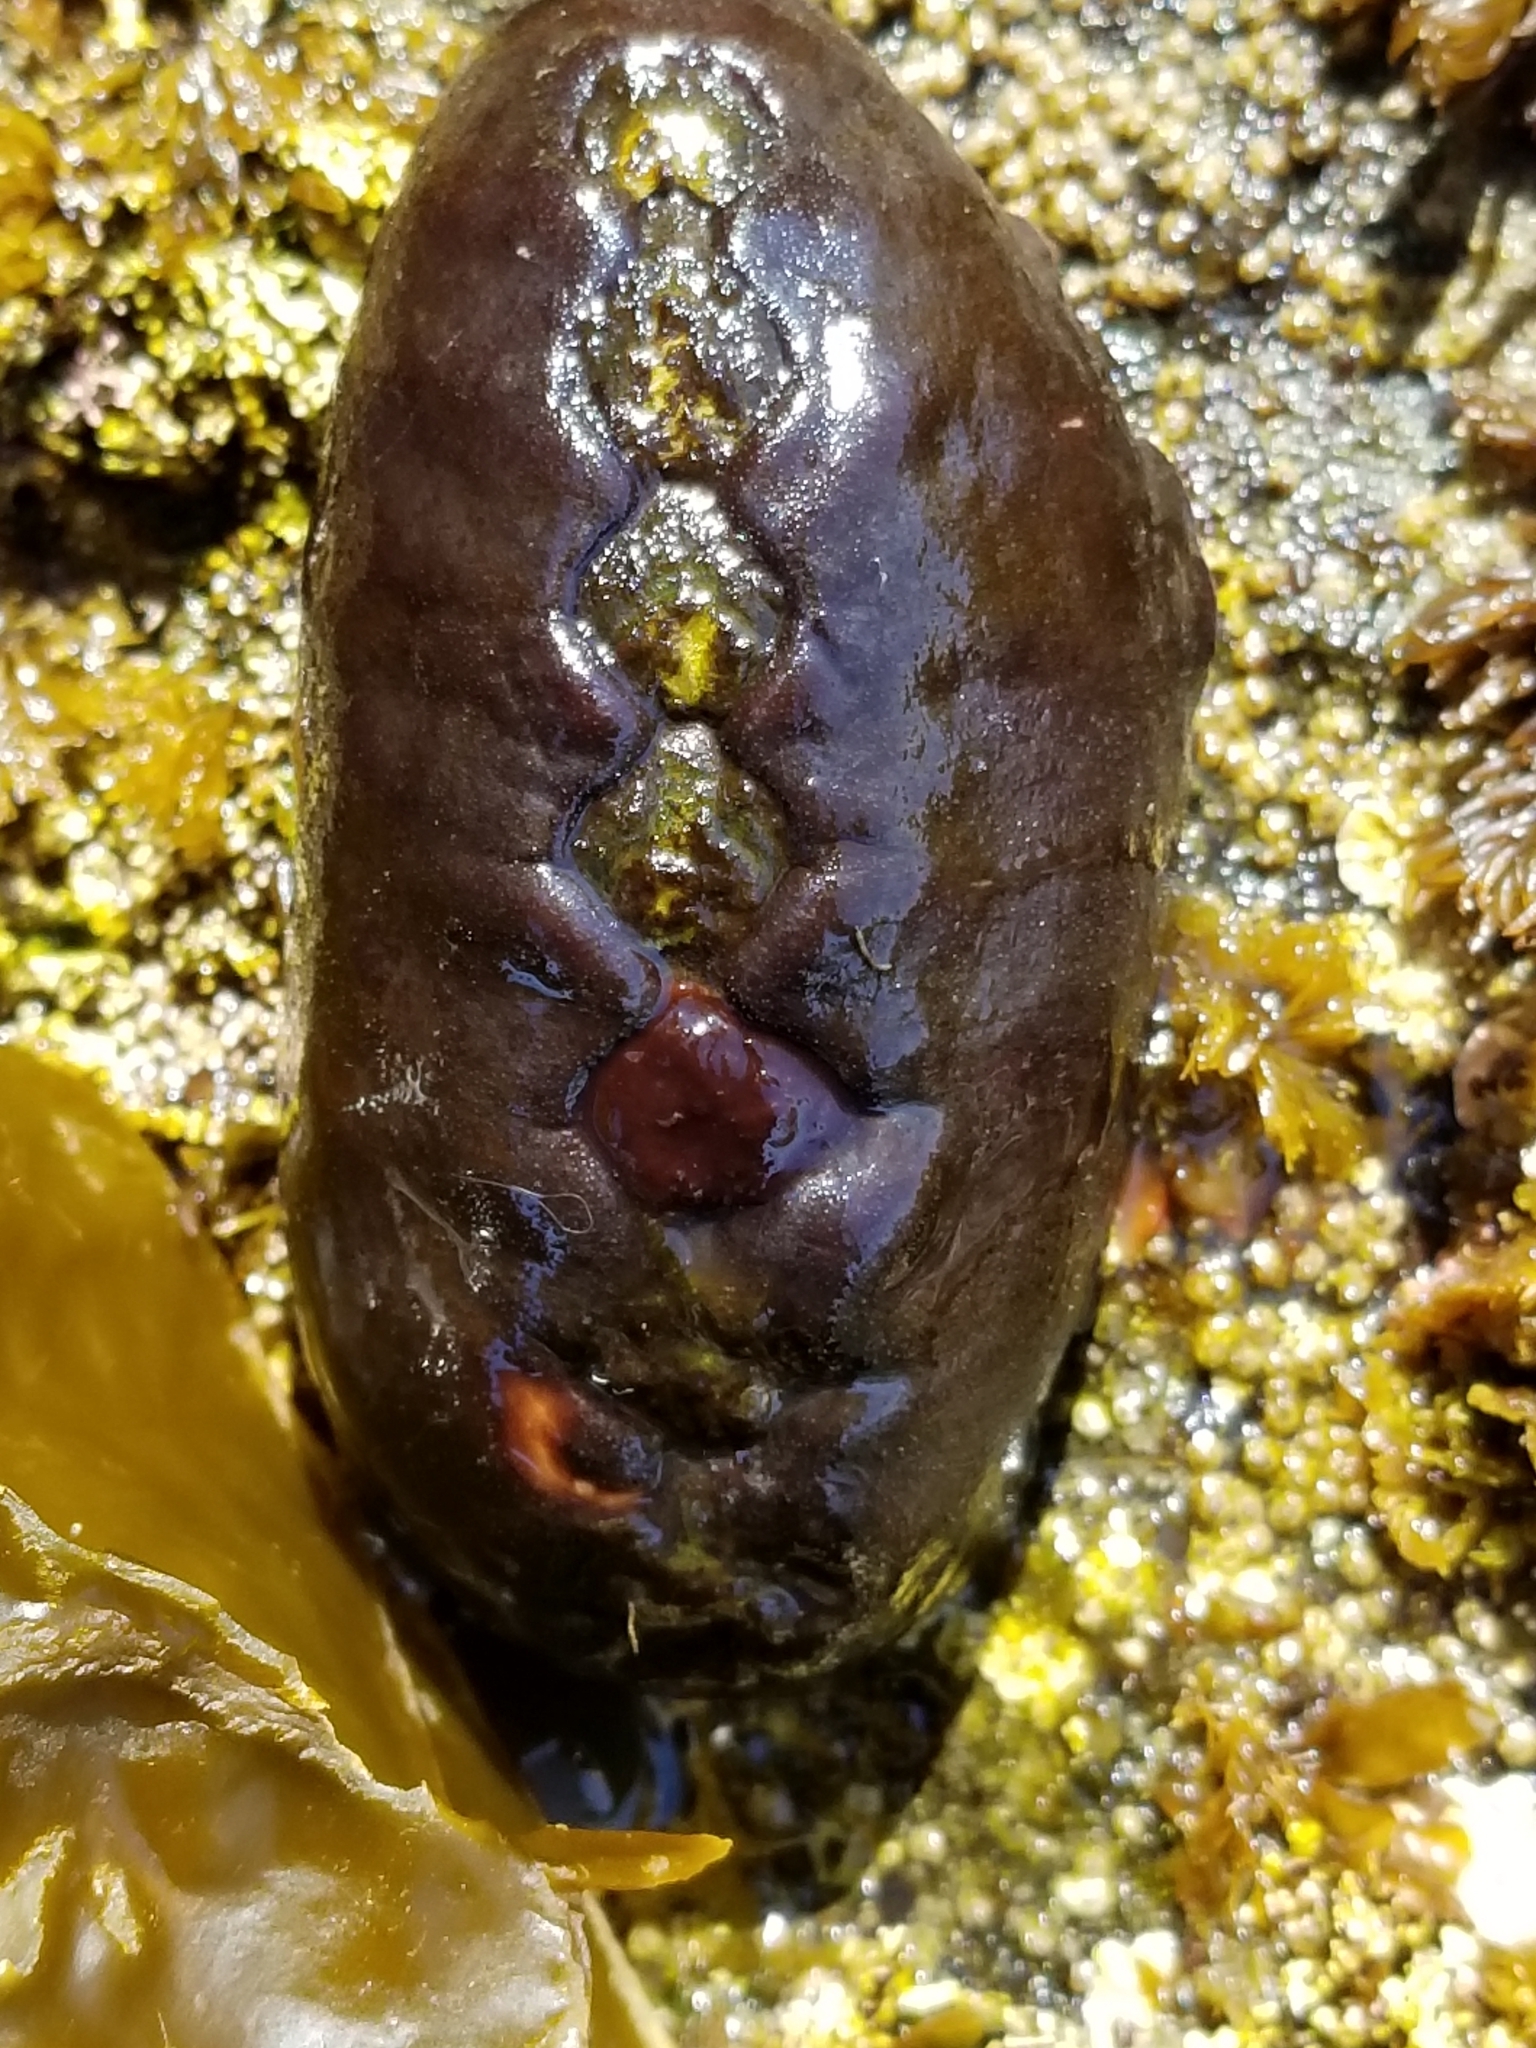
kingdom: Animalia
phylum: Mollusca
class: Polyplacophora
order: Chitonida
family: Mopaliidae
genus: Katharina
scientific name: Katharina tunicata
